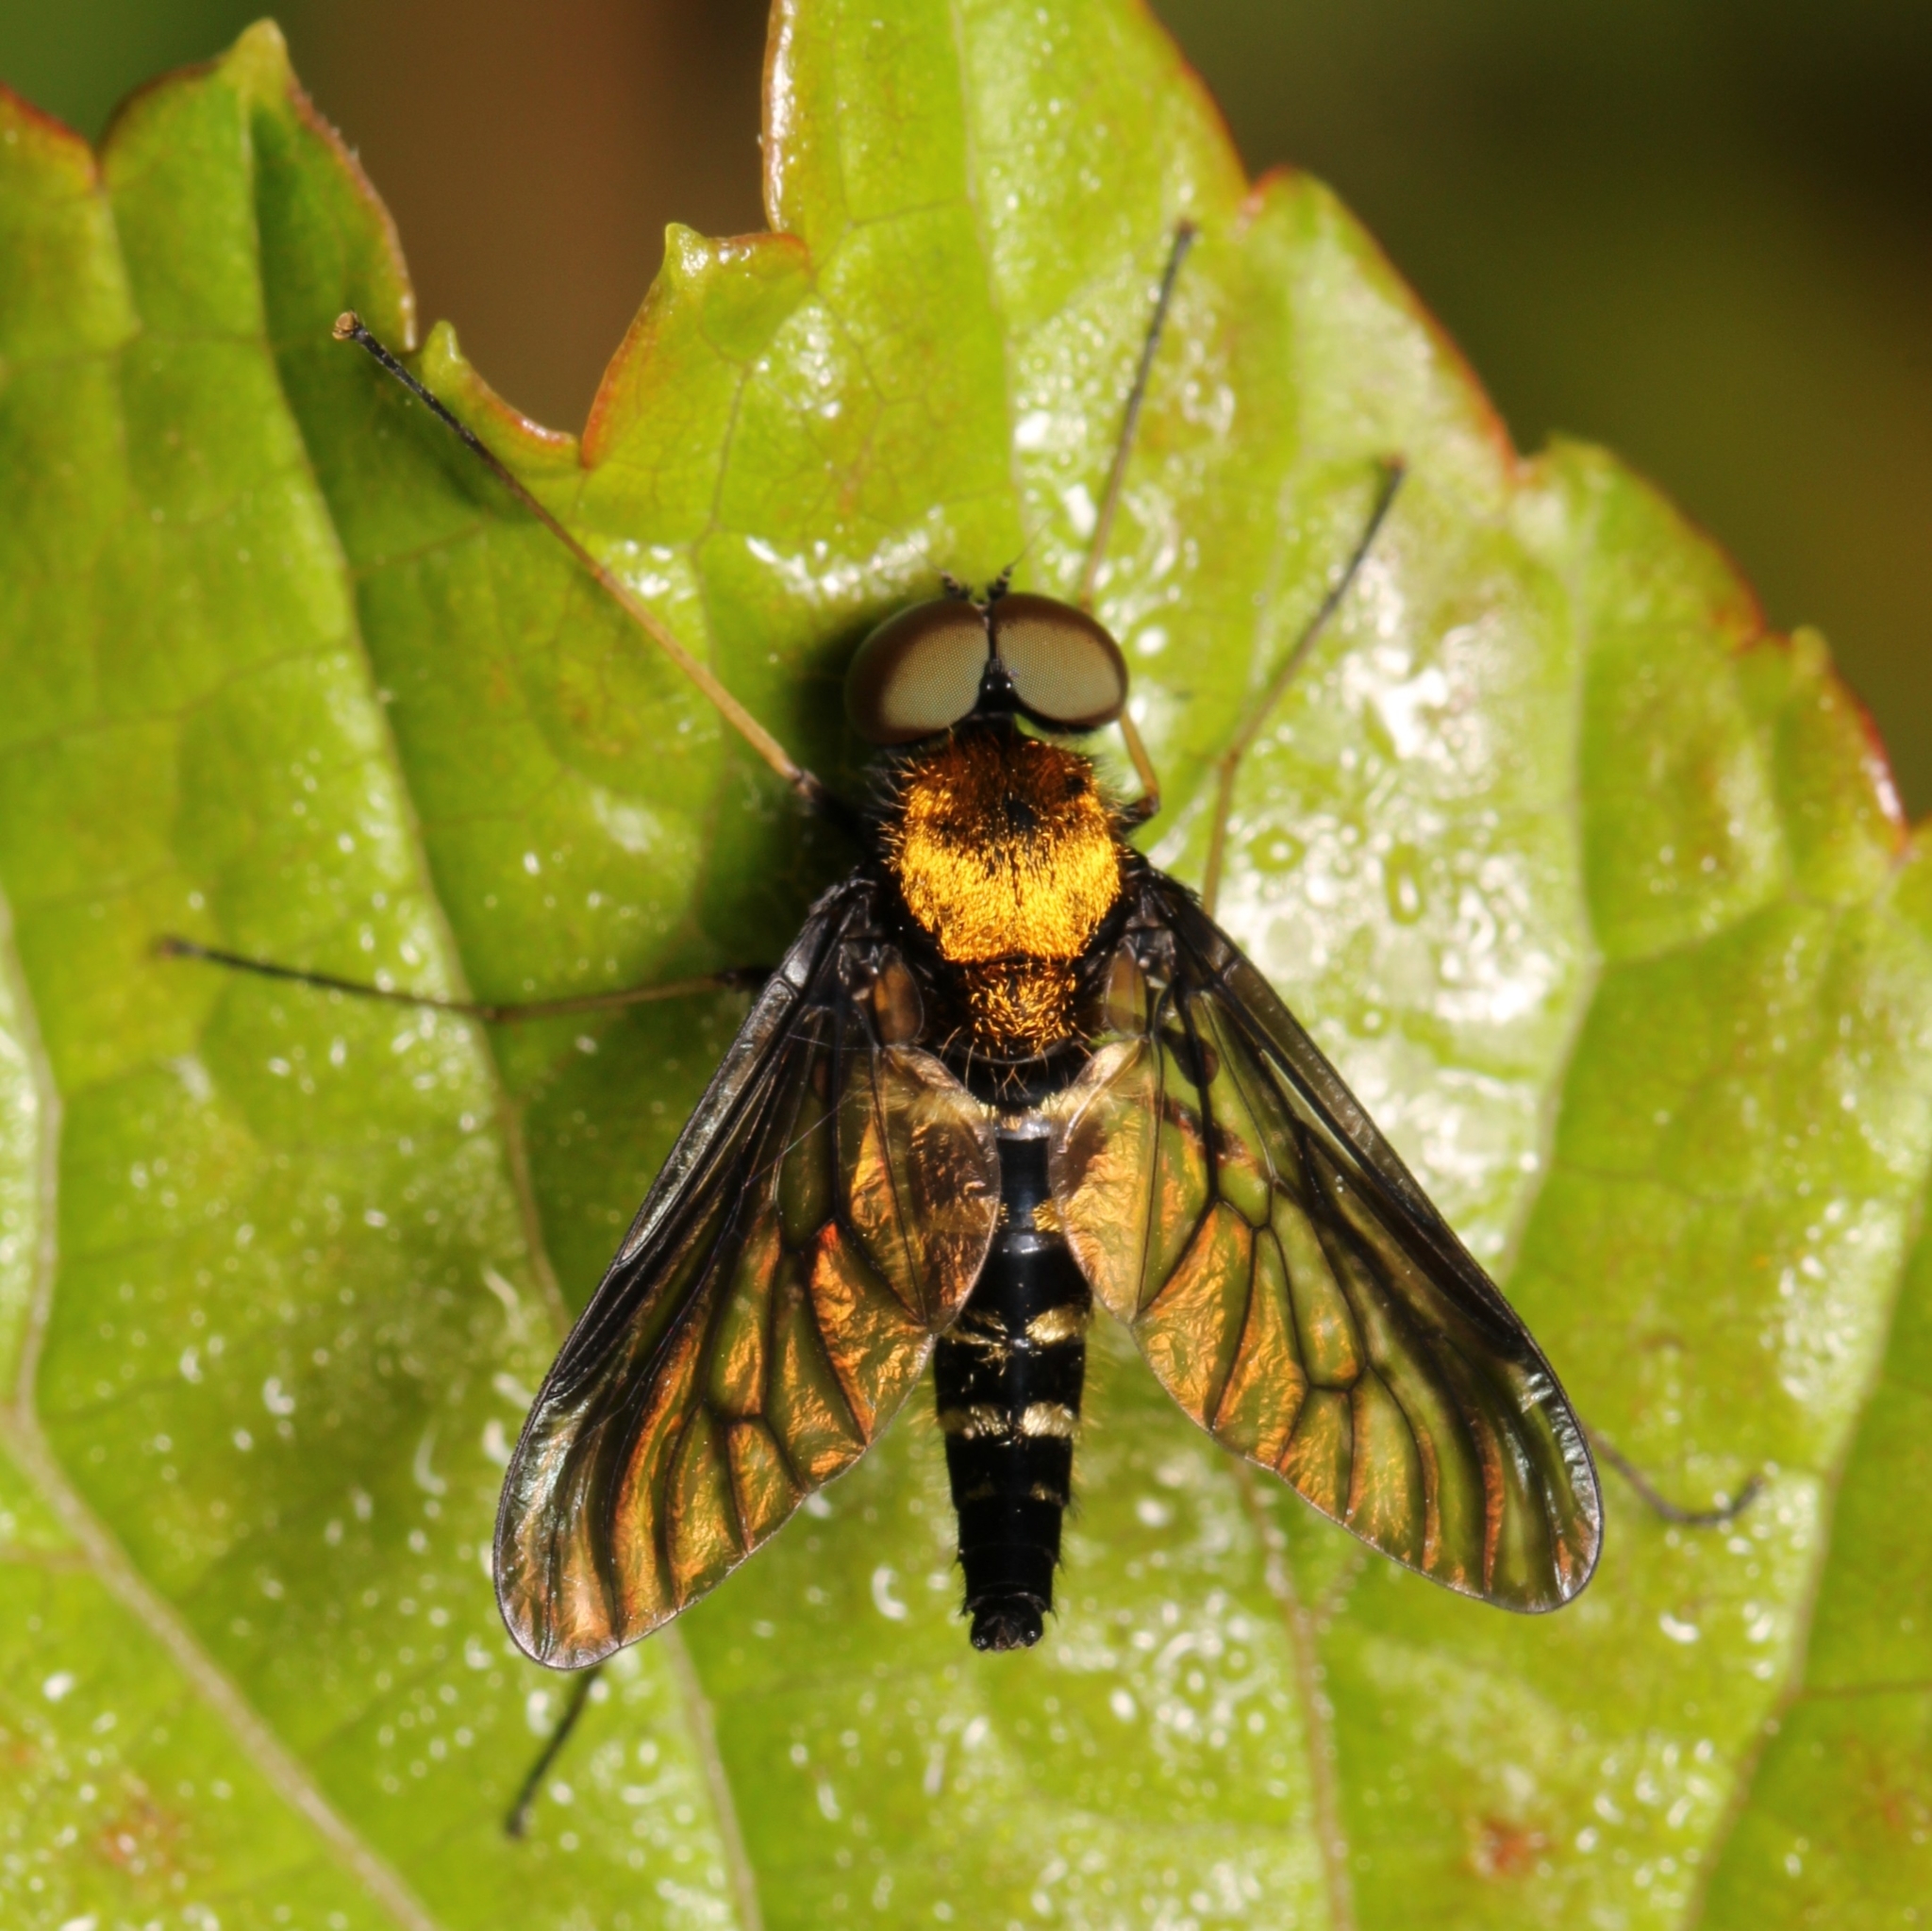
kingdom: Animalia
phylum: Arthropoda
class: Insecta
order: Diptera
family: Rhagionidae
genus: Chrysopilus
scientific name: Chrysopilus thoracicus
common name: Golden-backed snipe fly
